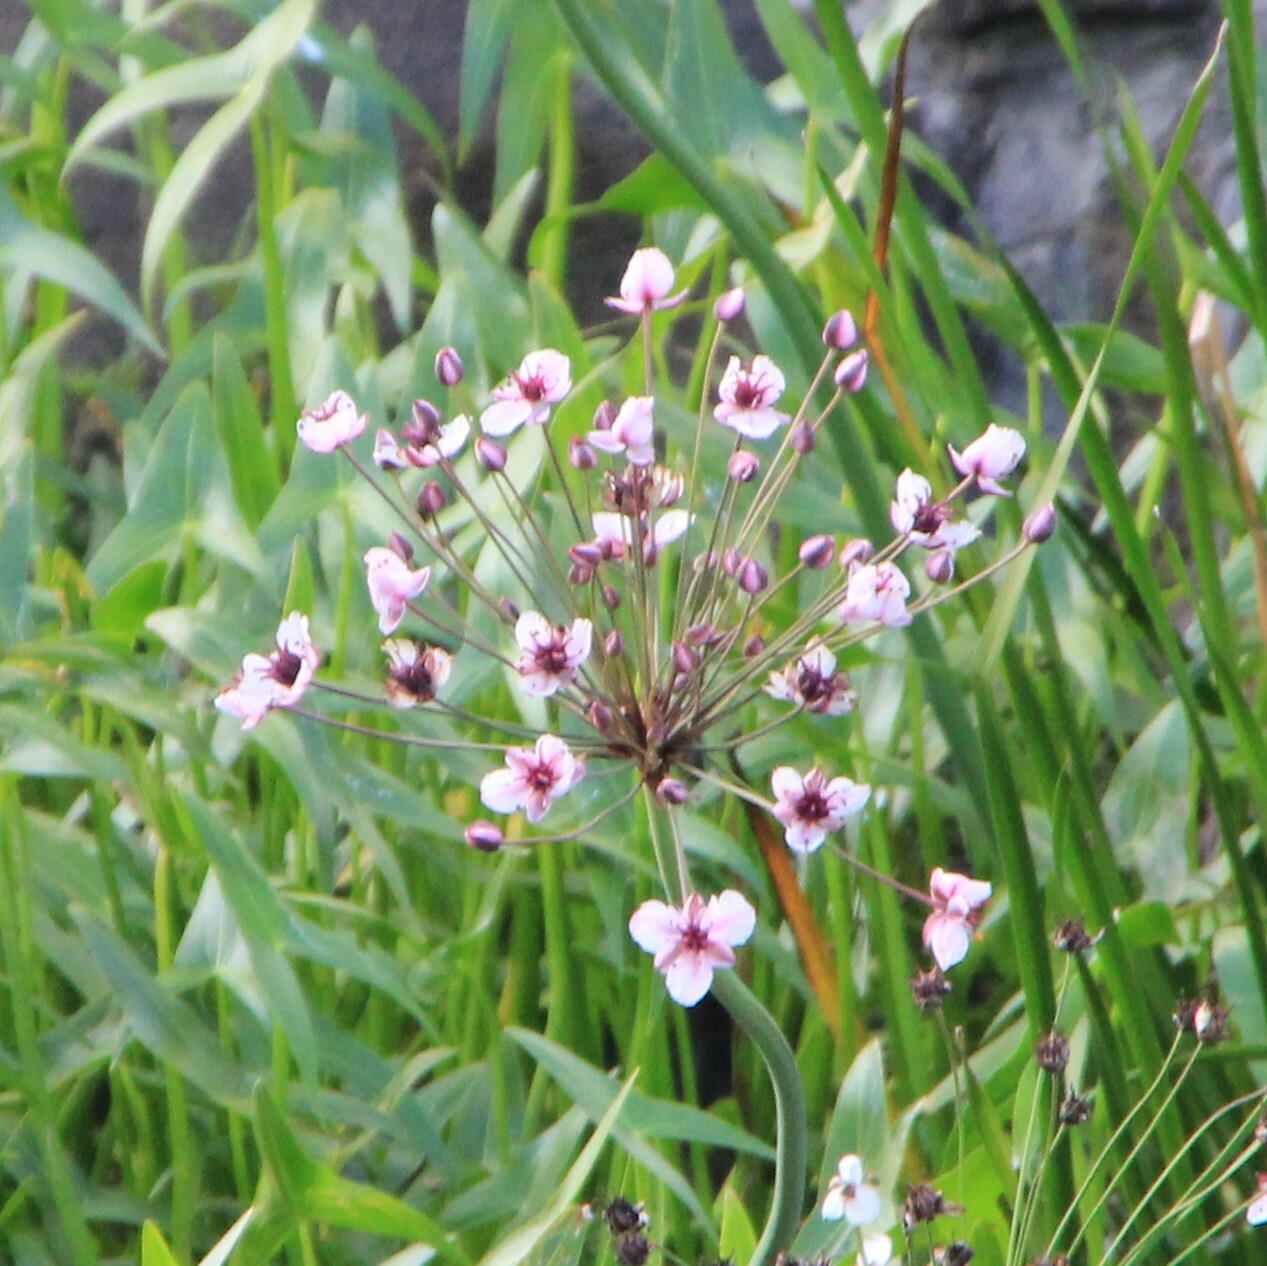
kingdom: Plantae
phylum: Tracheophyta
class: Liliopsida
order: Alismatales
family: Butomaceae
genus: Butomus
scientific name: Butomus umbellatus
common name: Flowering-rush
